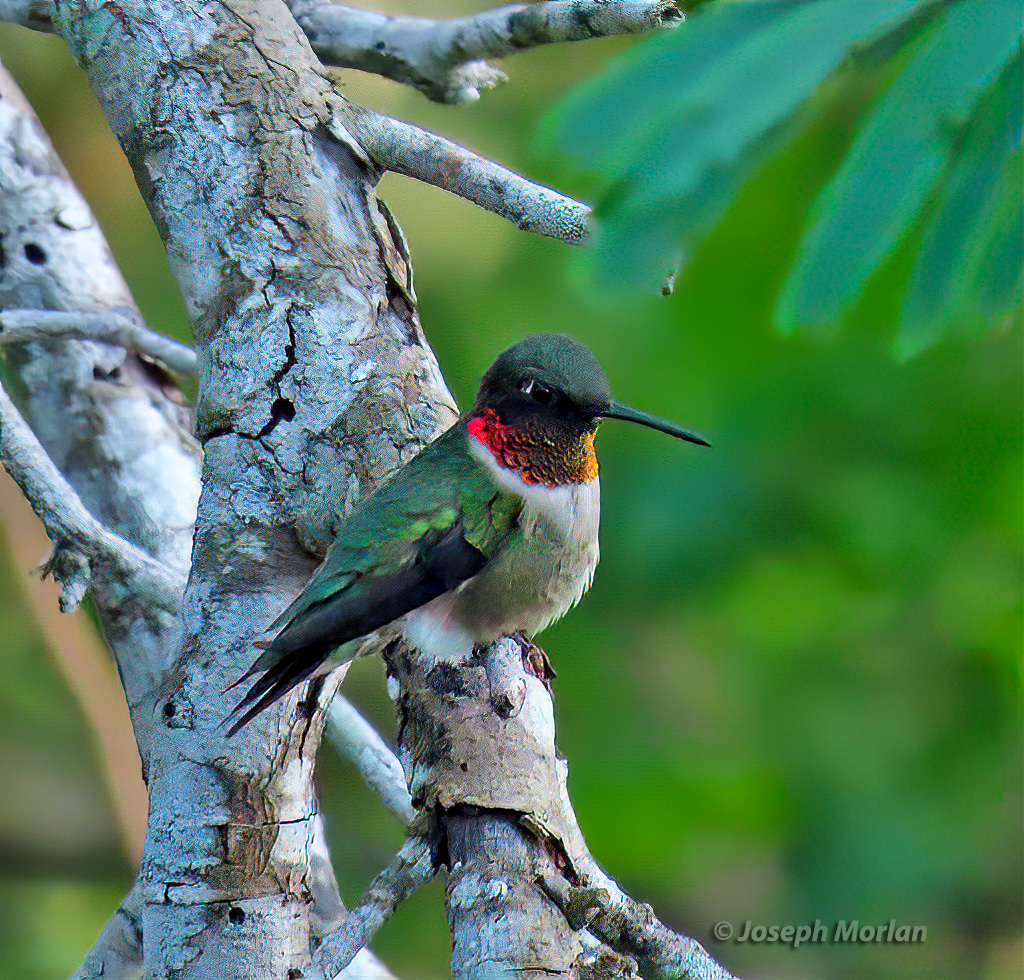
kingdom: Animalia
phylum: Chordata
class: Aves
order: Apodiformes
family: Trochilidae
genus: Archilochus
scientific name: Archilochus colubris
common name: Ruby-throated hummingbird
